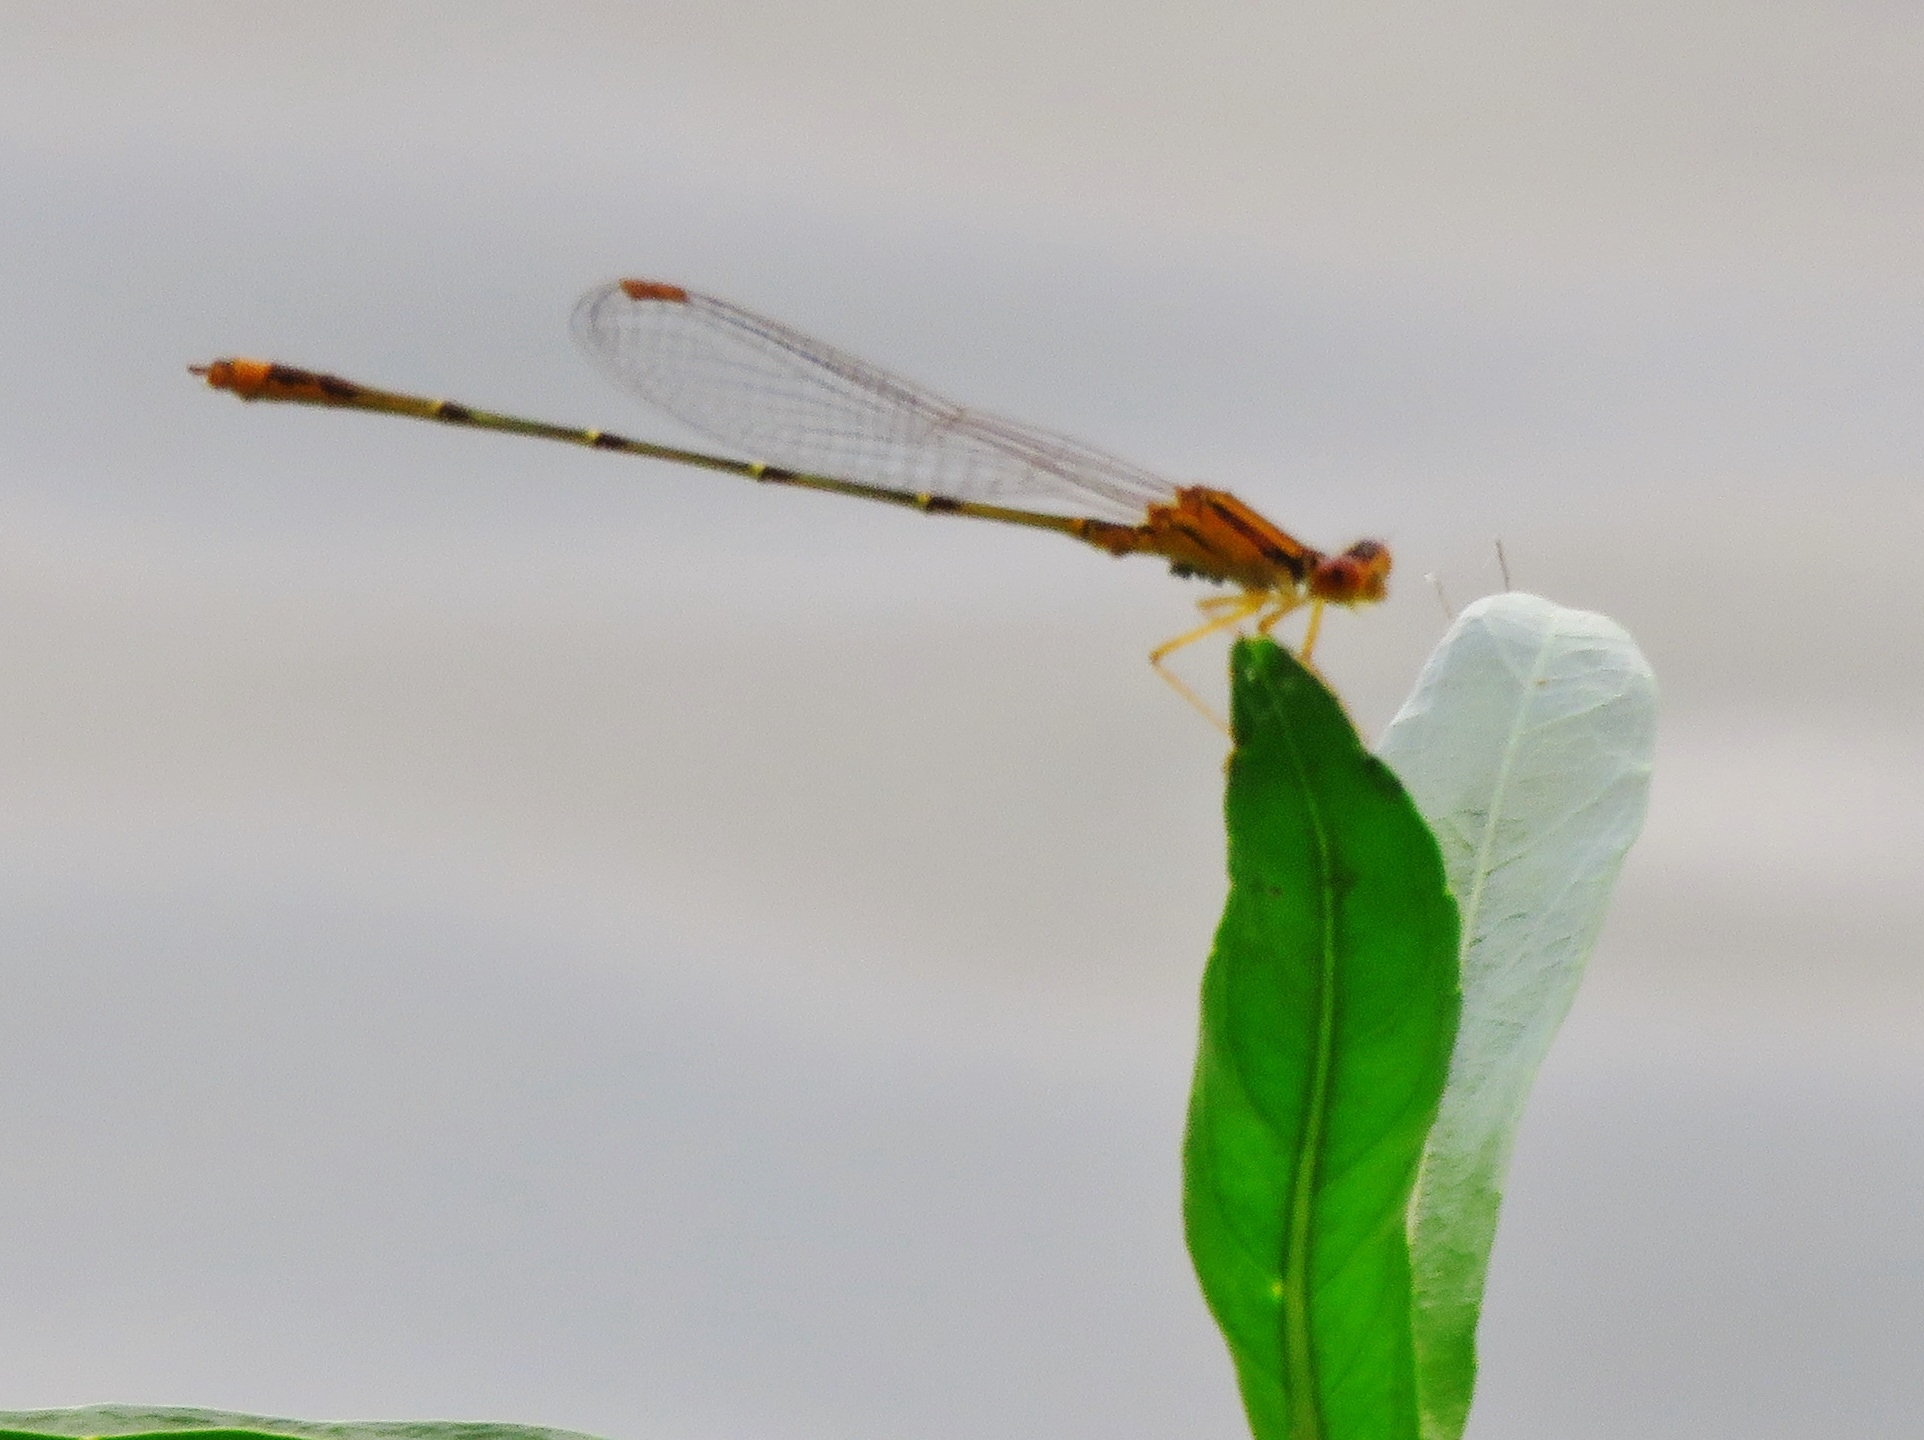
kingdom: Animalia
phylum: Arthropoda
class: Insecta
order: Odonata
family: Coenagrionidae
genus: Enallagma
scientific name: Enallagma signatum
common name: Orange bluet
